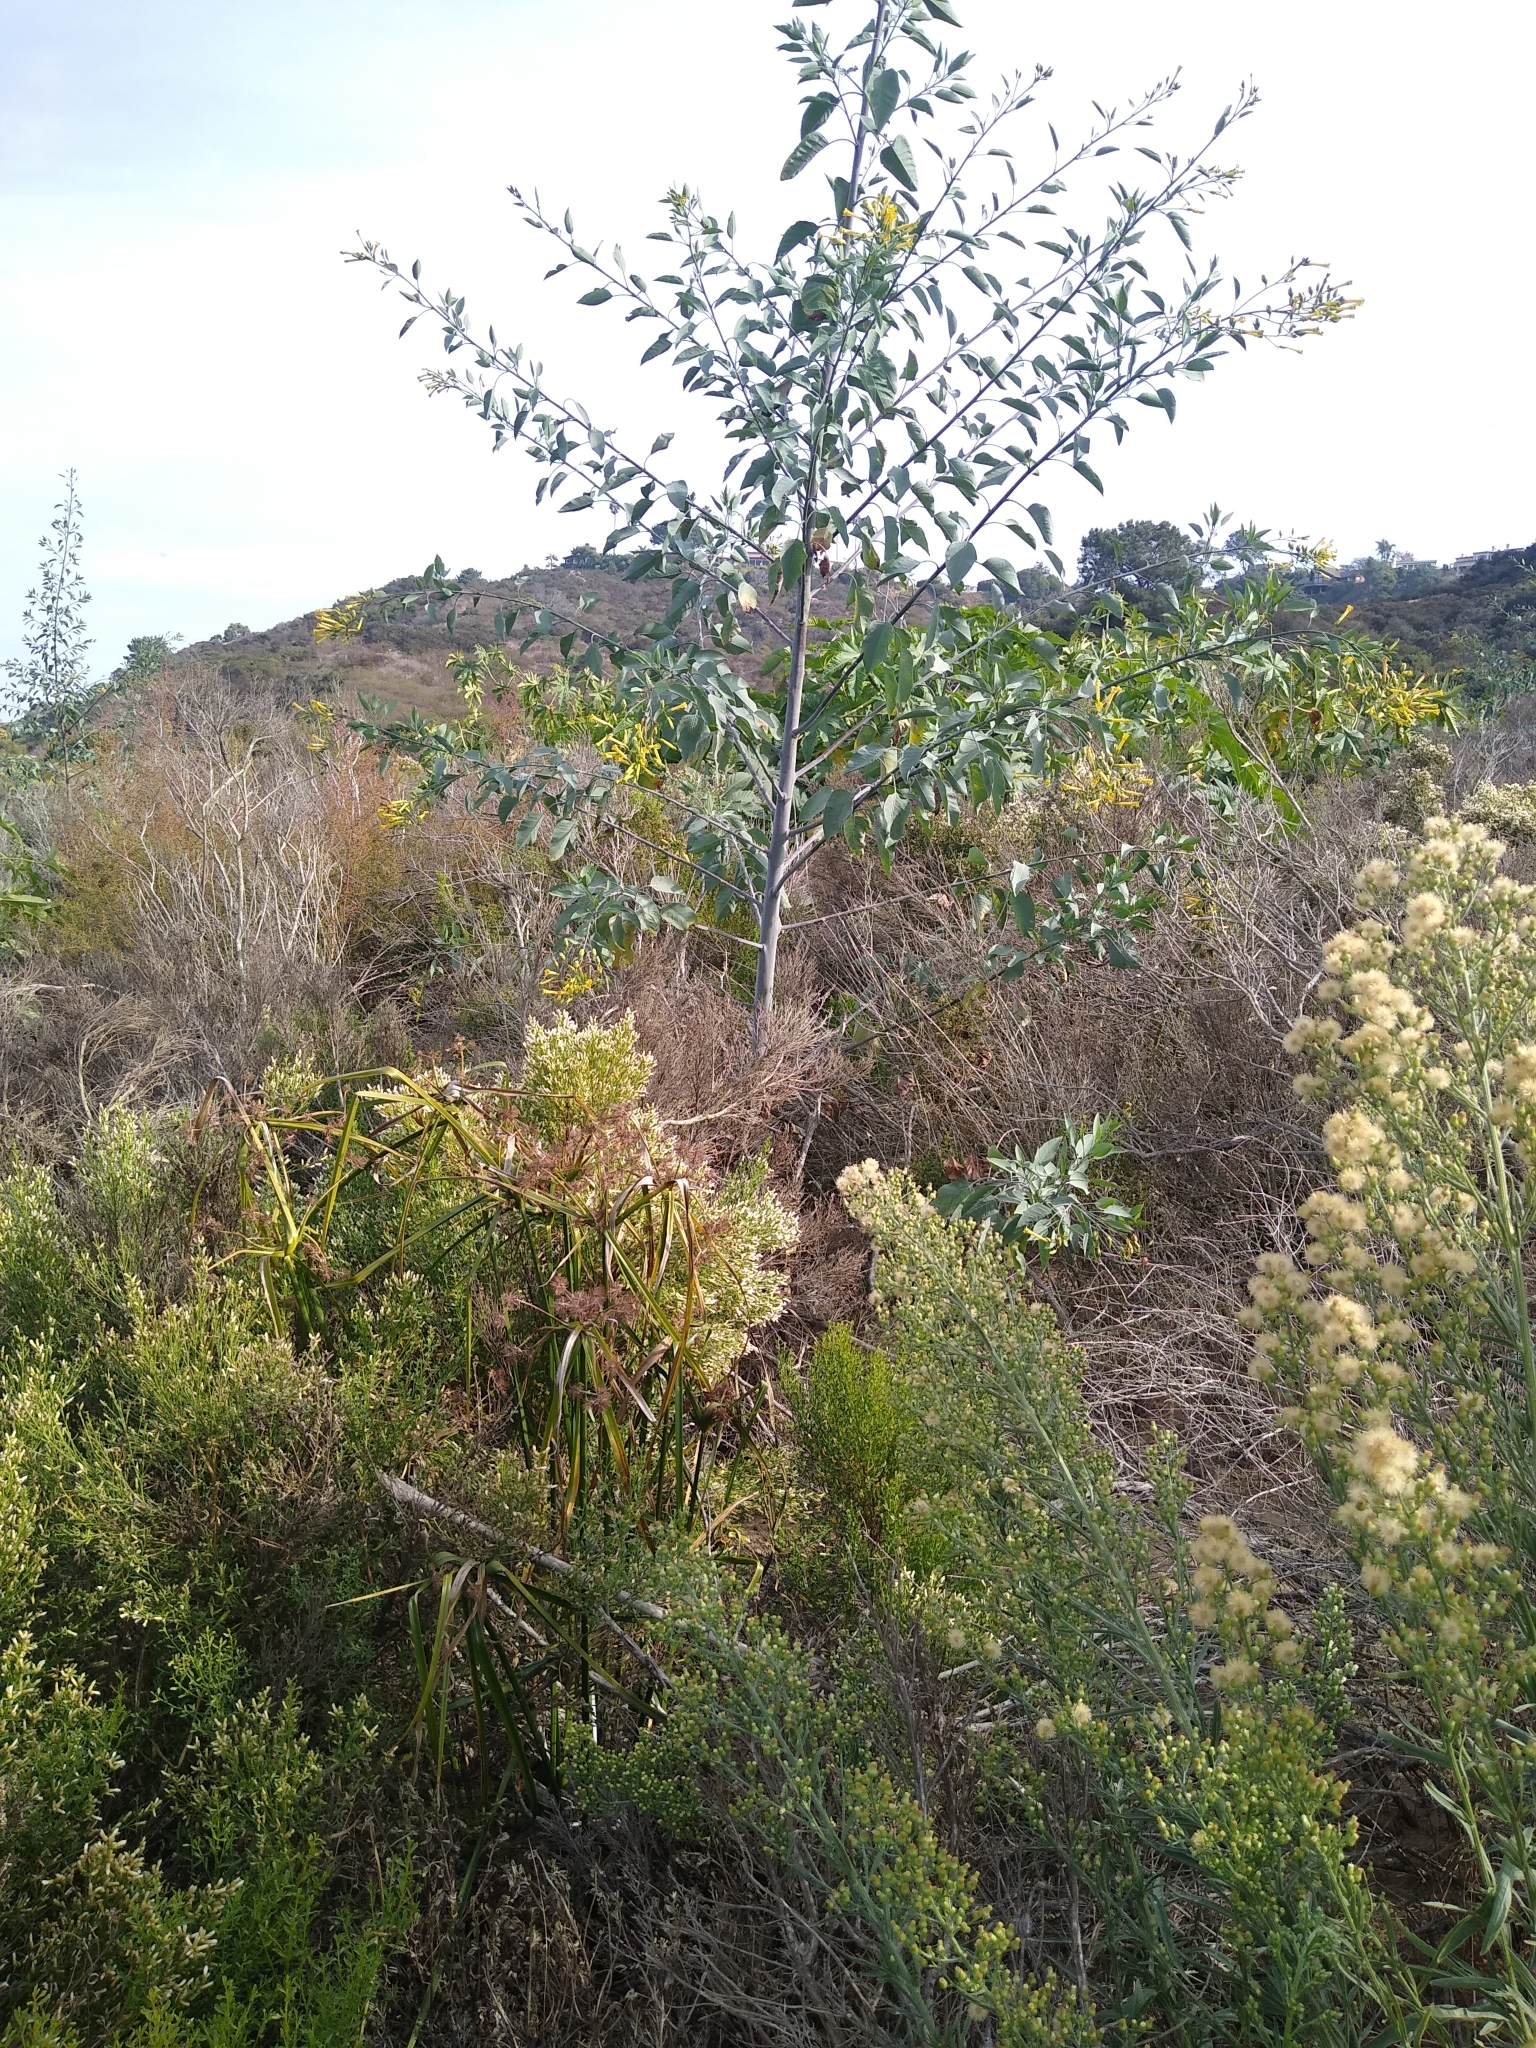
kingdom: Plantae
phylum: Tracheophyta
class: Magnoliopsida
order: Solanales
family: Solanaceae
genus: Nicotiana
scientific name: Nicotiana glauca
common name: Tree tobacco
